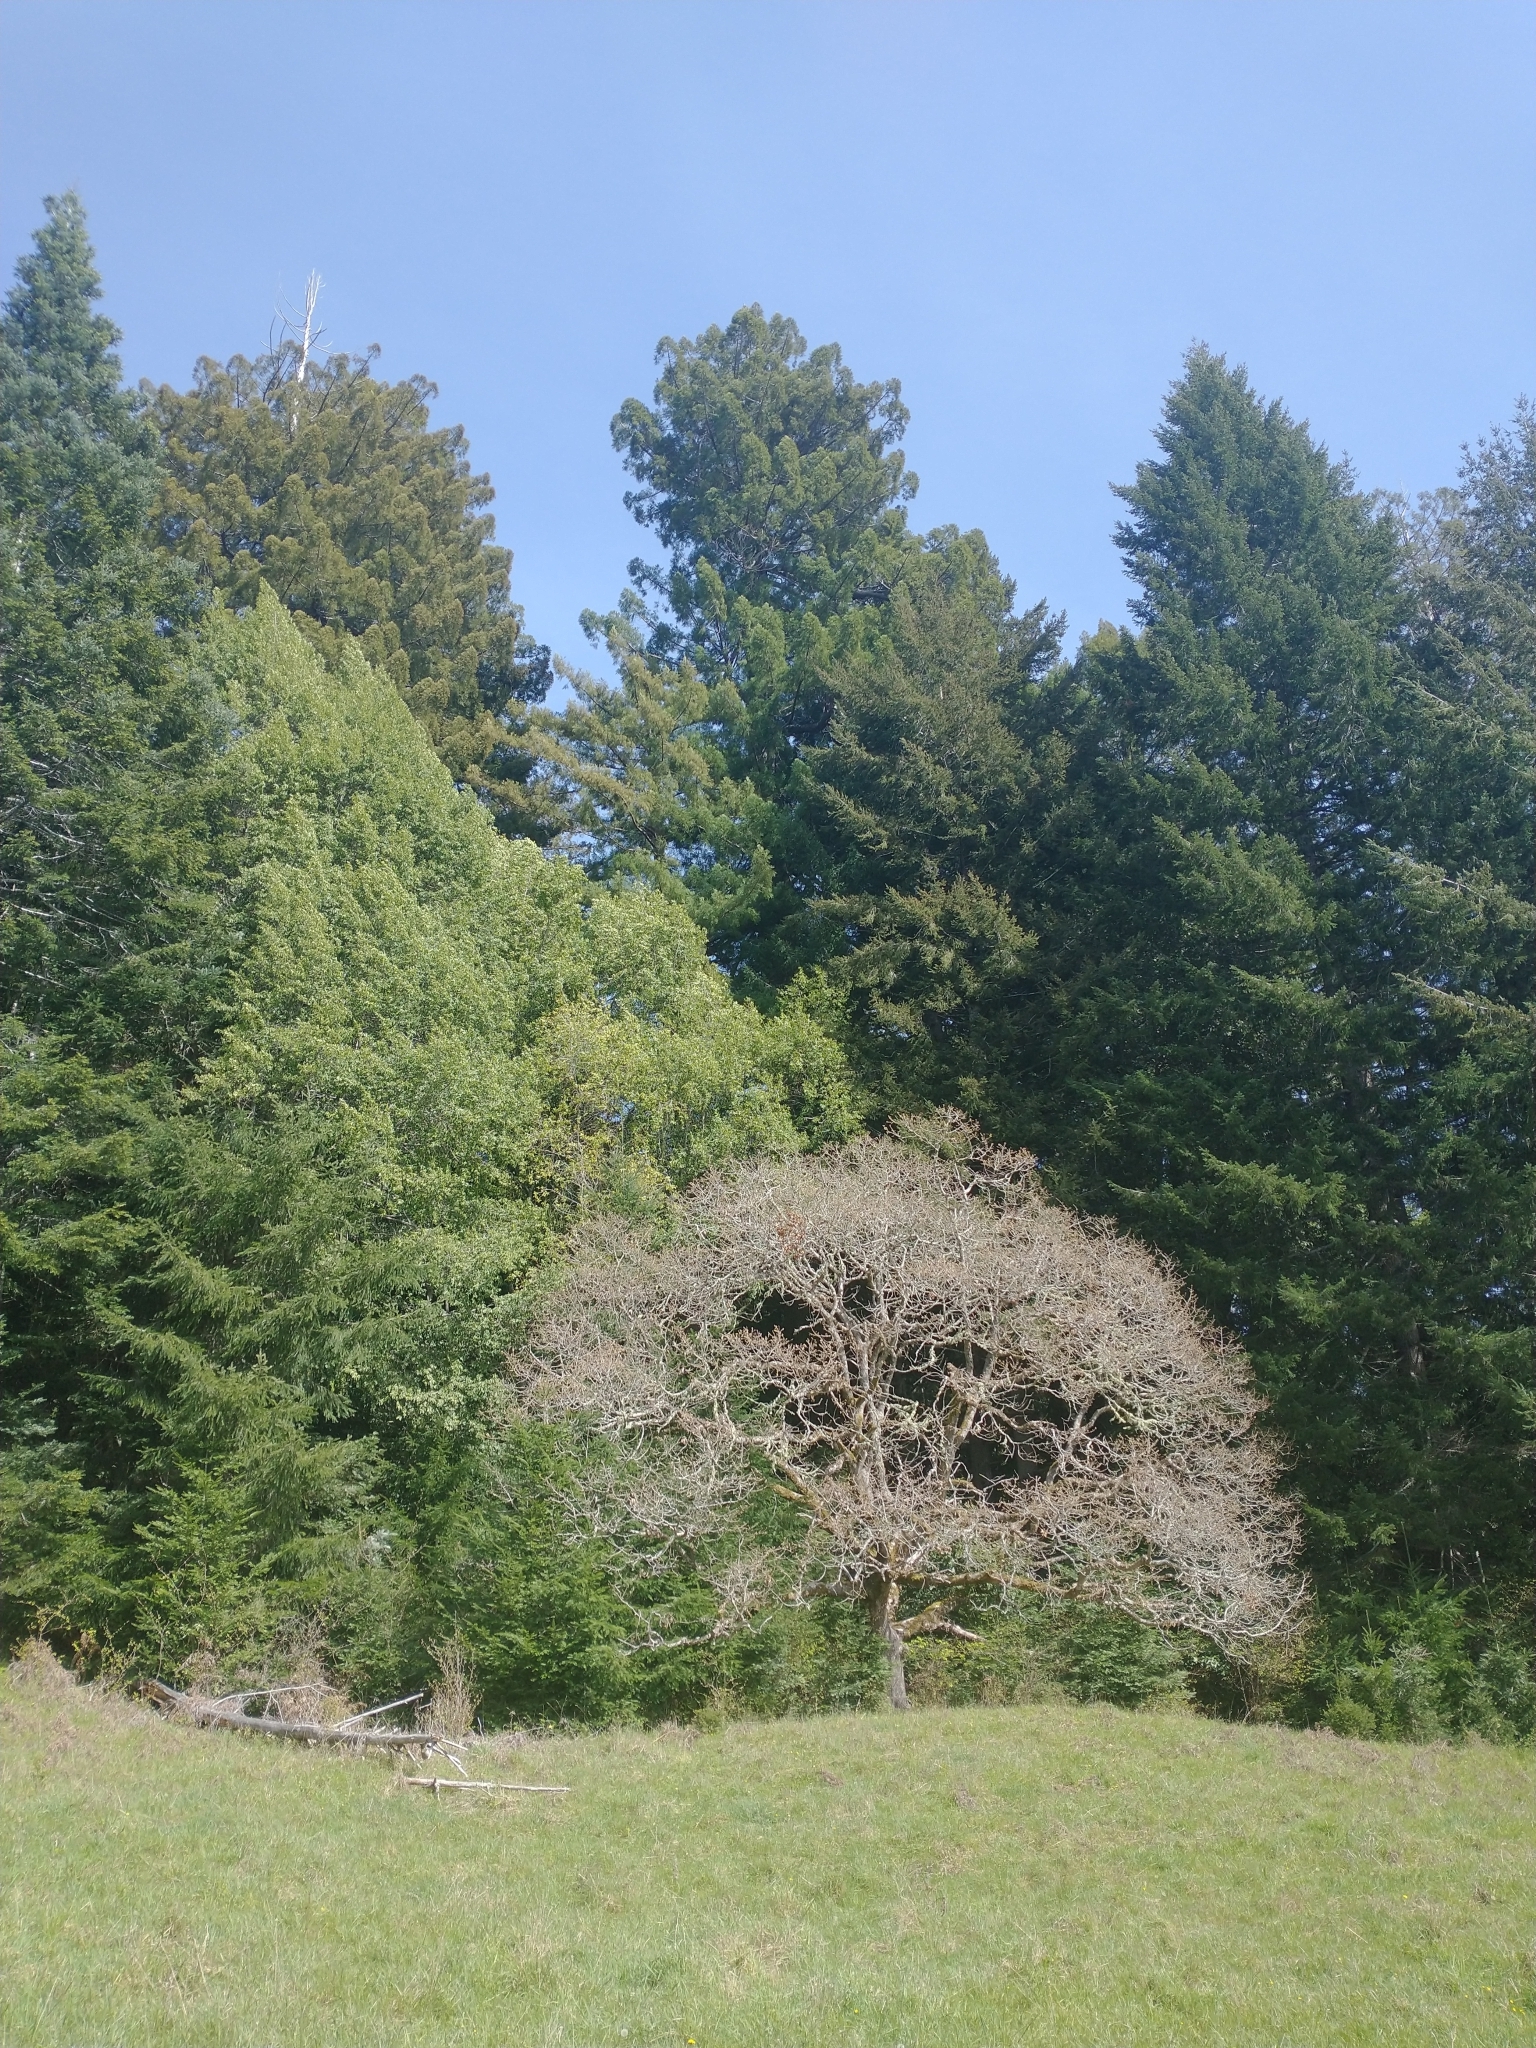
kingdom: Plantae
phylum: Tracheophyta
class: Pinopsida
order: Pinales
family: Pinaceae
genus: Pseudotsuga
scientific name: Pseudotsuga menziesii
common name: Douglas fir
